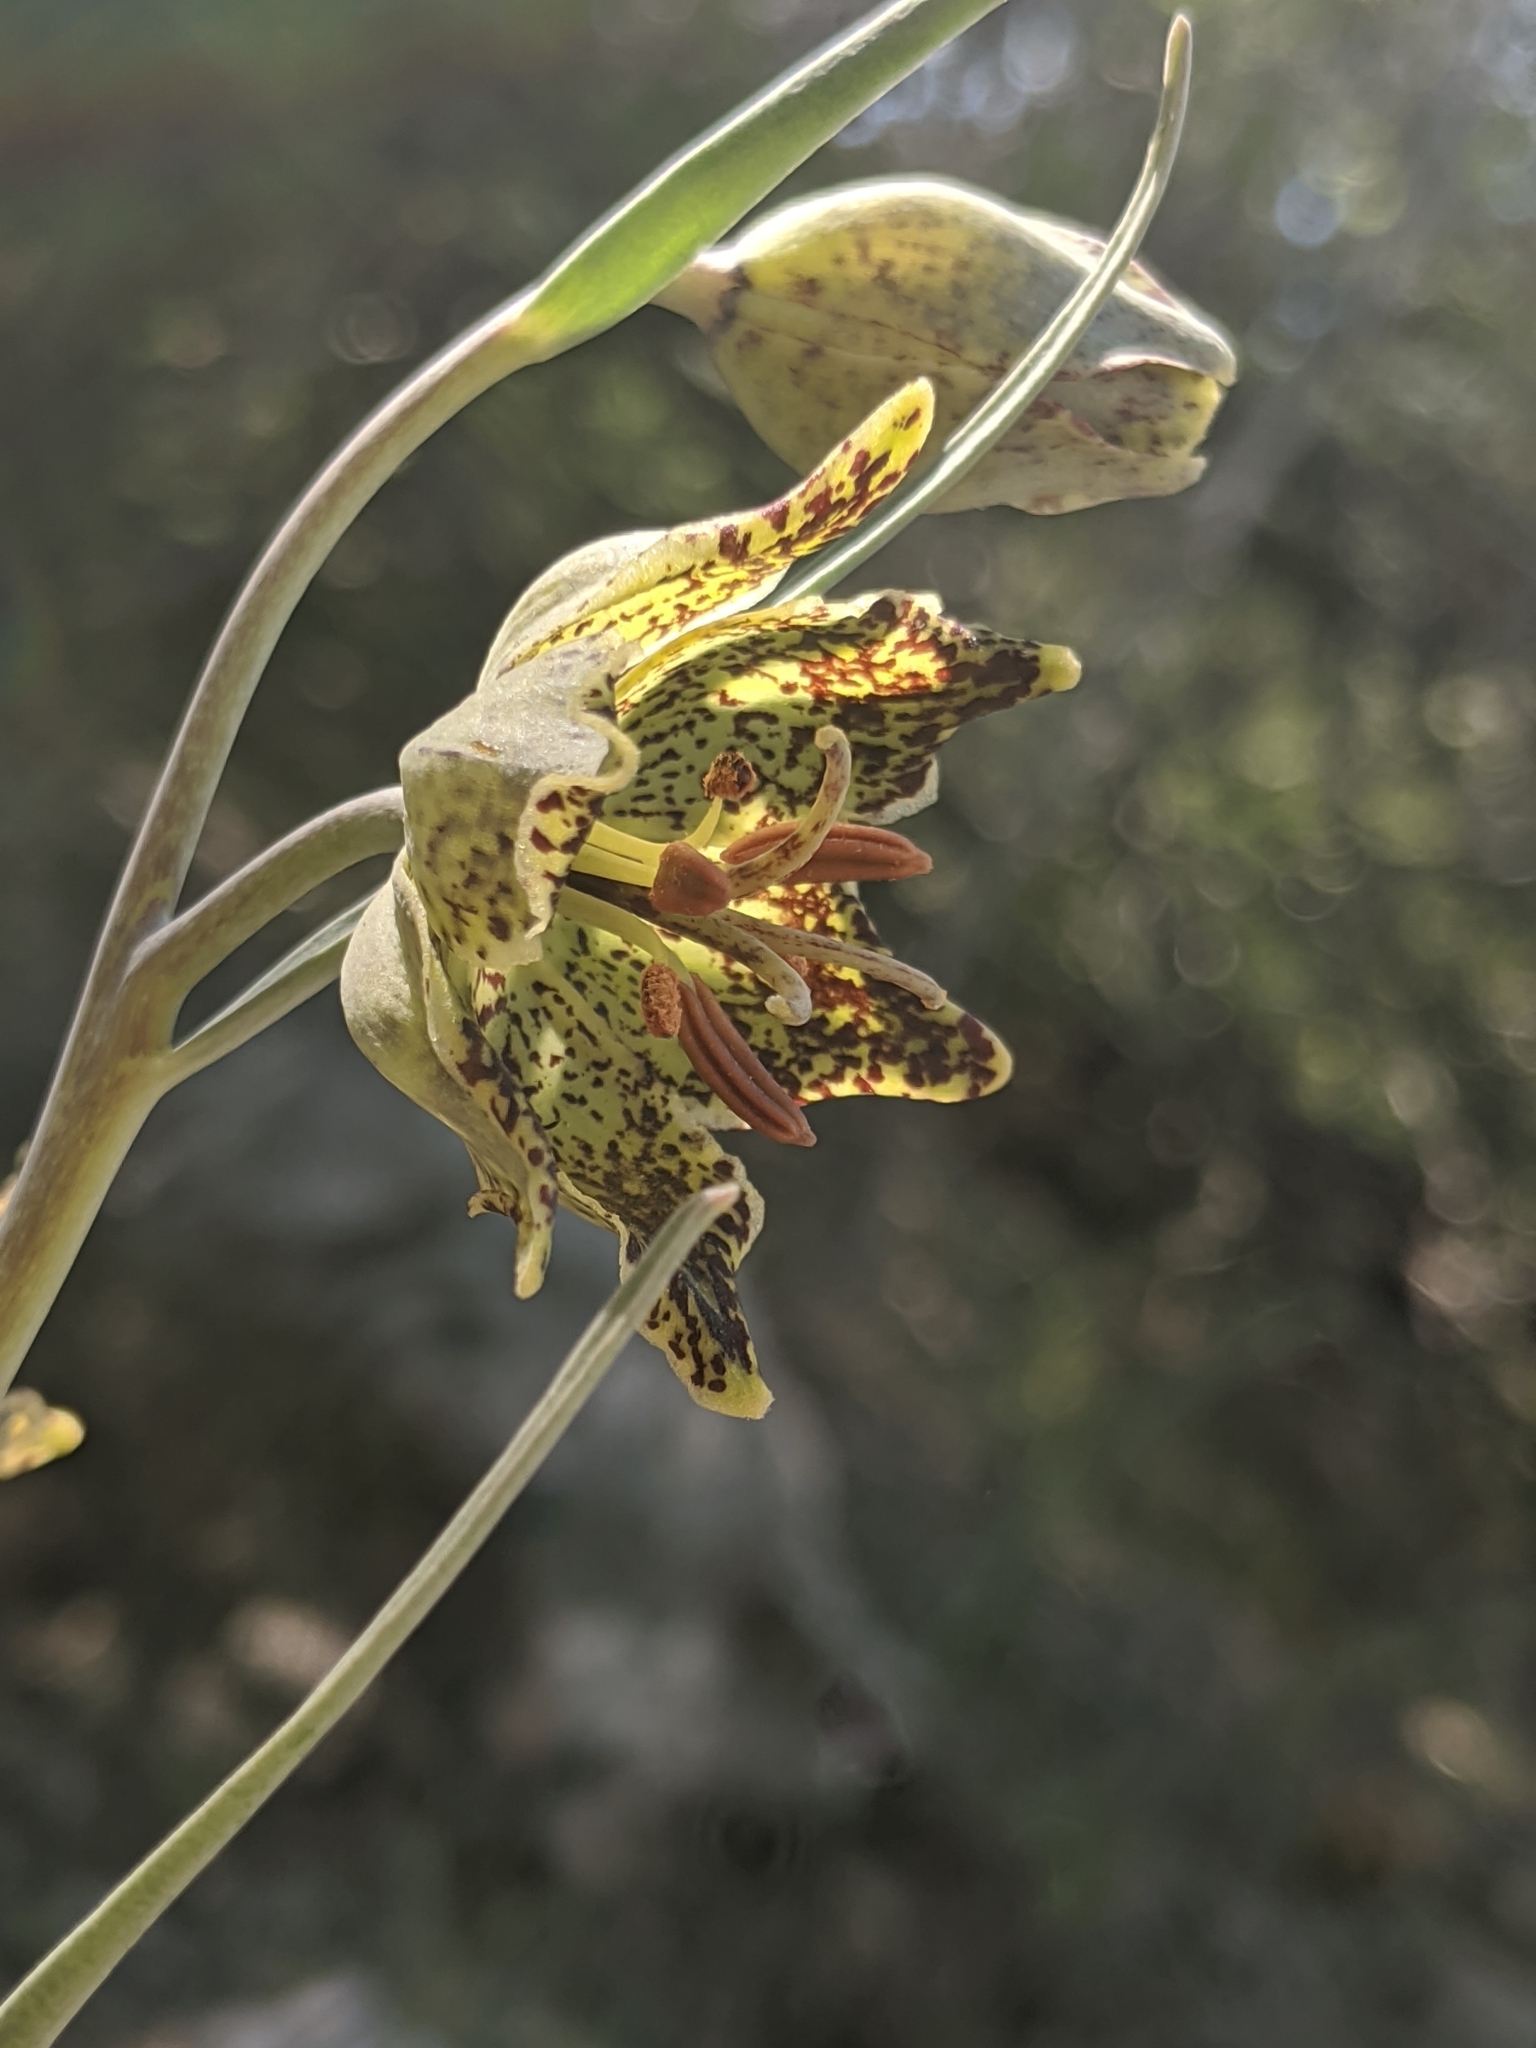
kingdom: Plantae
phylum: Tracheophyta
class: Liliopsida
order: Liliales
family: Liliaceae
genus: Fritillaria
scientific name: Fritillaria pinetorum
